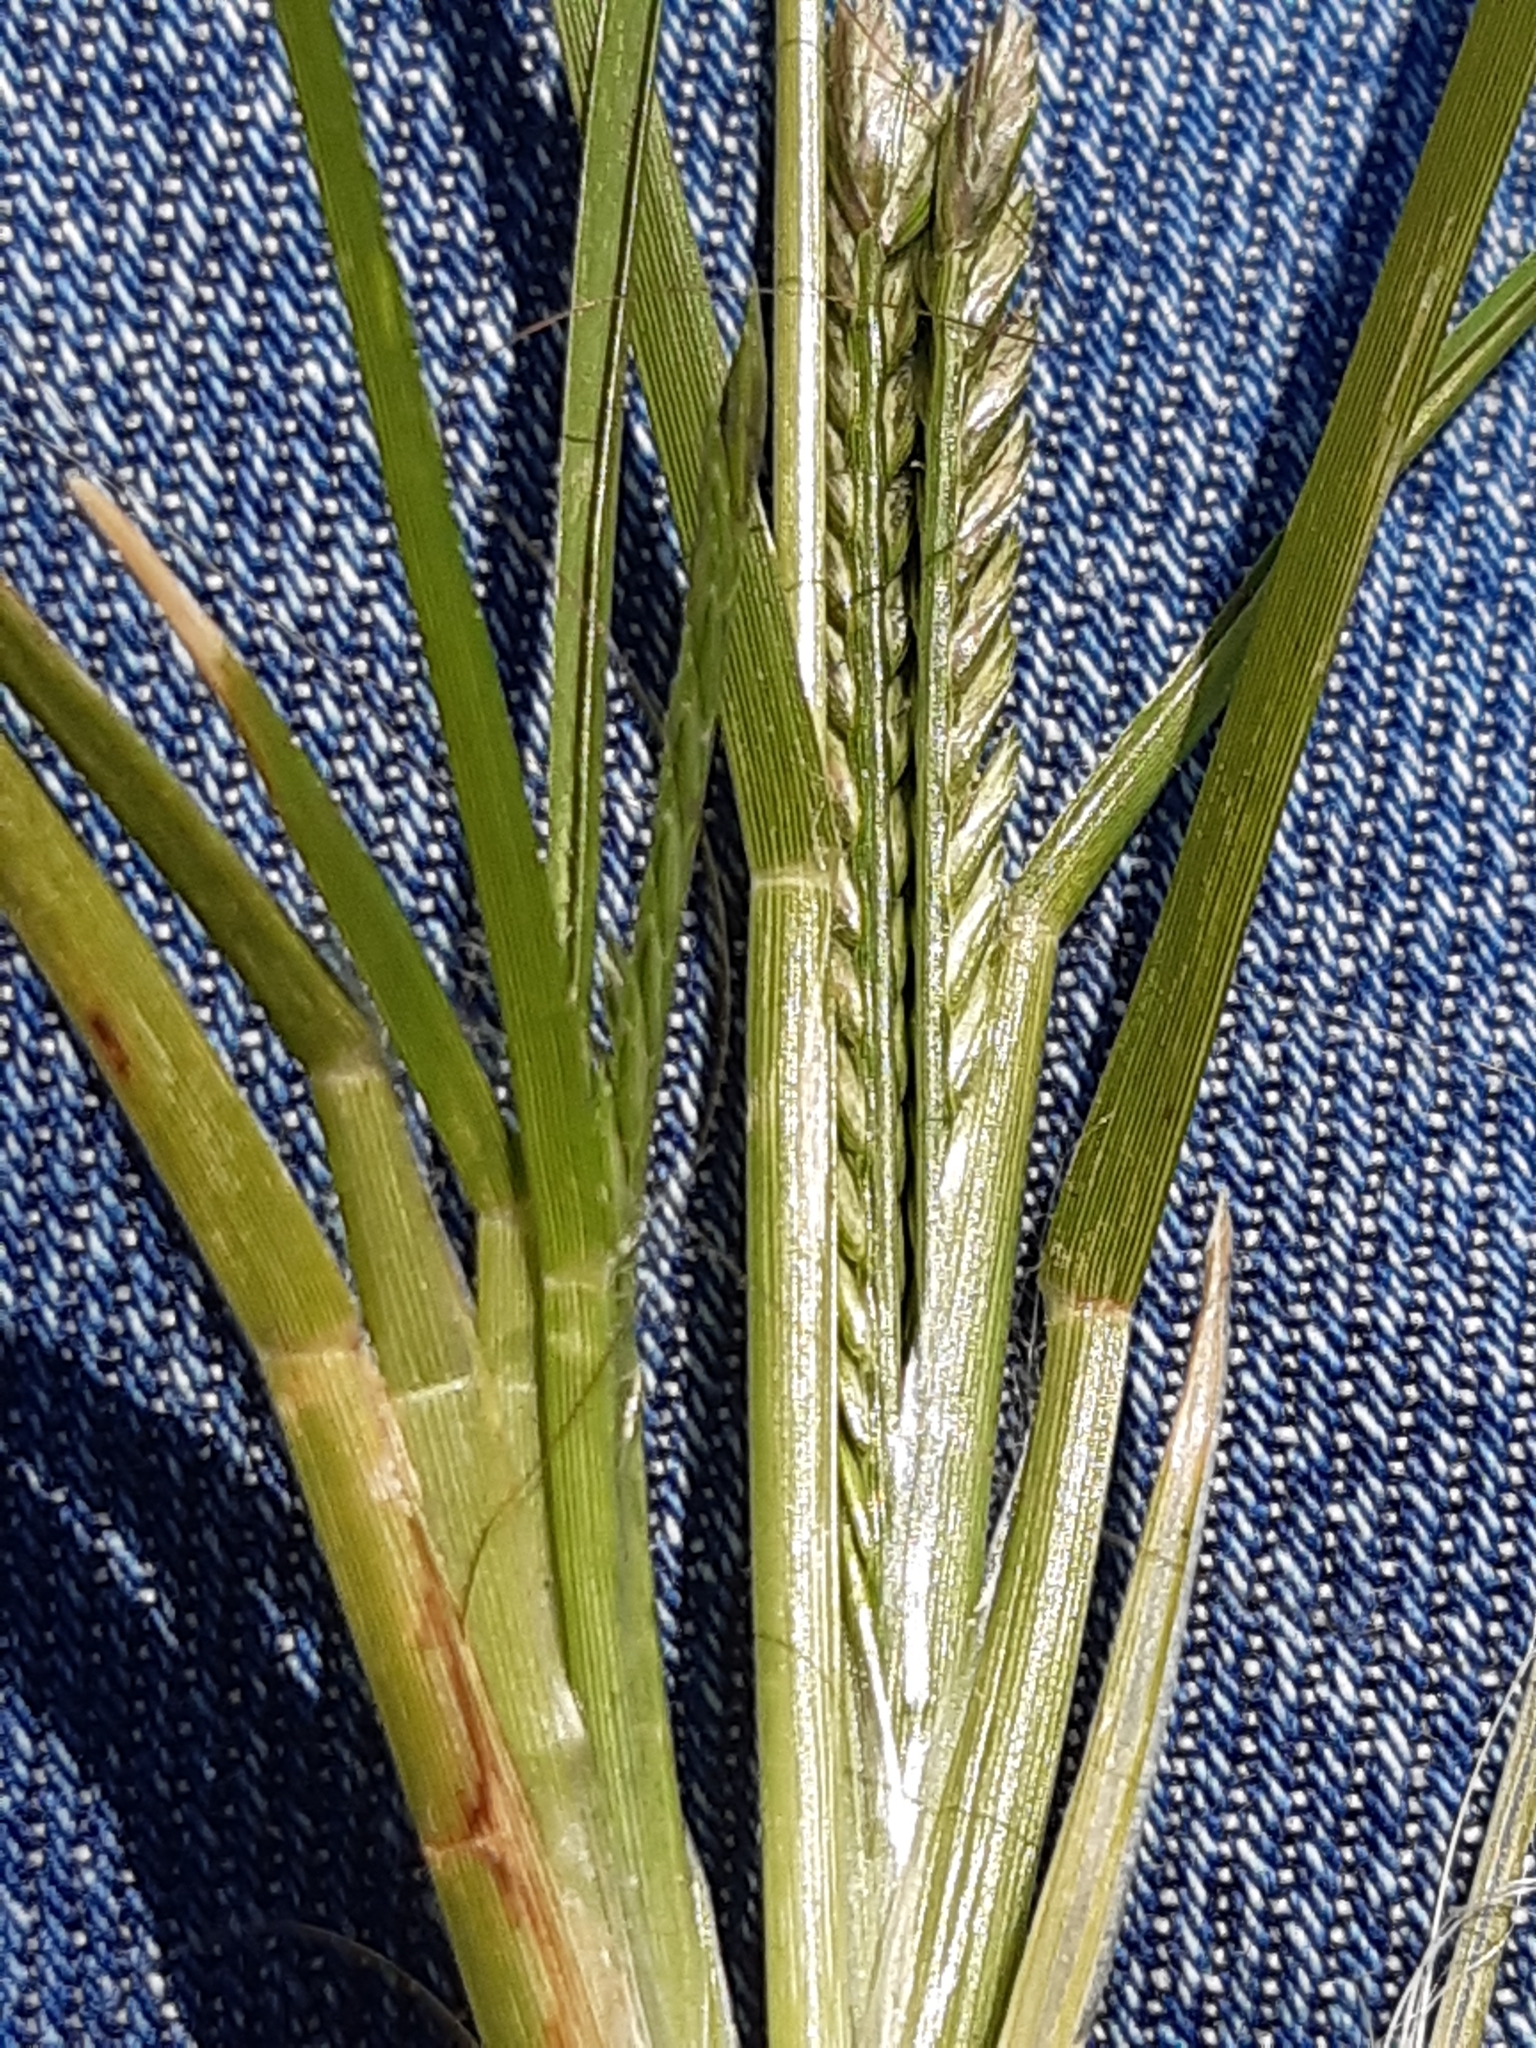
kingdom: Plantae
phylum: Tracheophyta
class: Liliopsida
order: Poales
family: Poaceae
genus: Eleusine
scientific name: Eleusine indica
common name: Yard-grass
